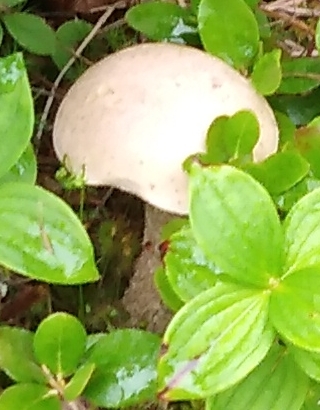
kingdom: Fungi
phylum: Basidiomycota
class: Agaricomycetes
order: Boletales
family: Boletaceae
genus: Leccinum
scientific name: Leccinum scabrum
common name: Blushing bolete
